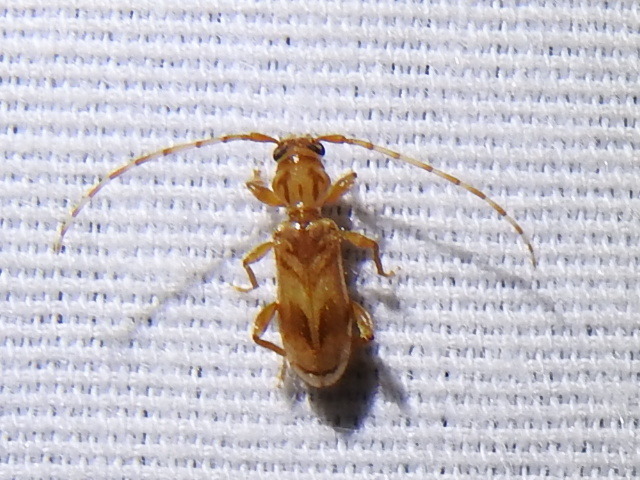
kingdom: Animalia
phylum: Arthropoda
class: Insecta
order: Coleoptera
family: Cerambycidae
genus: Obrium
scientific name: Obrium maculatum
